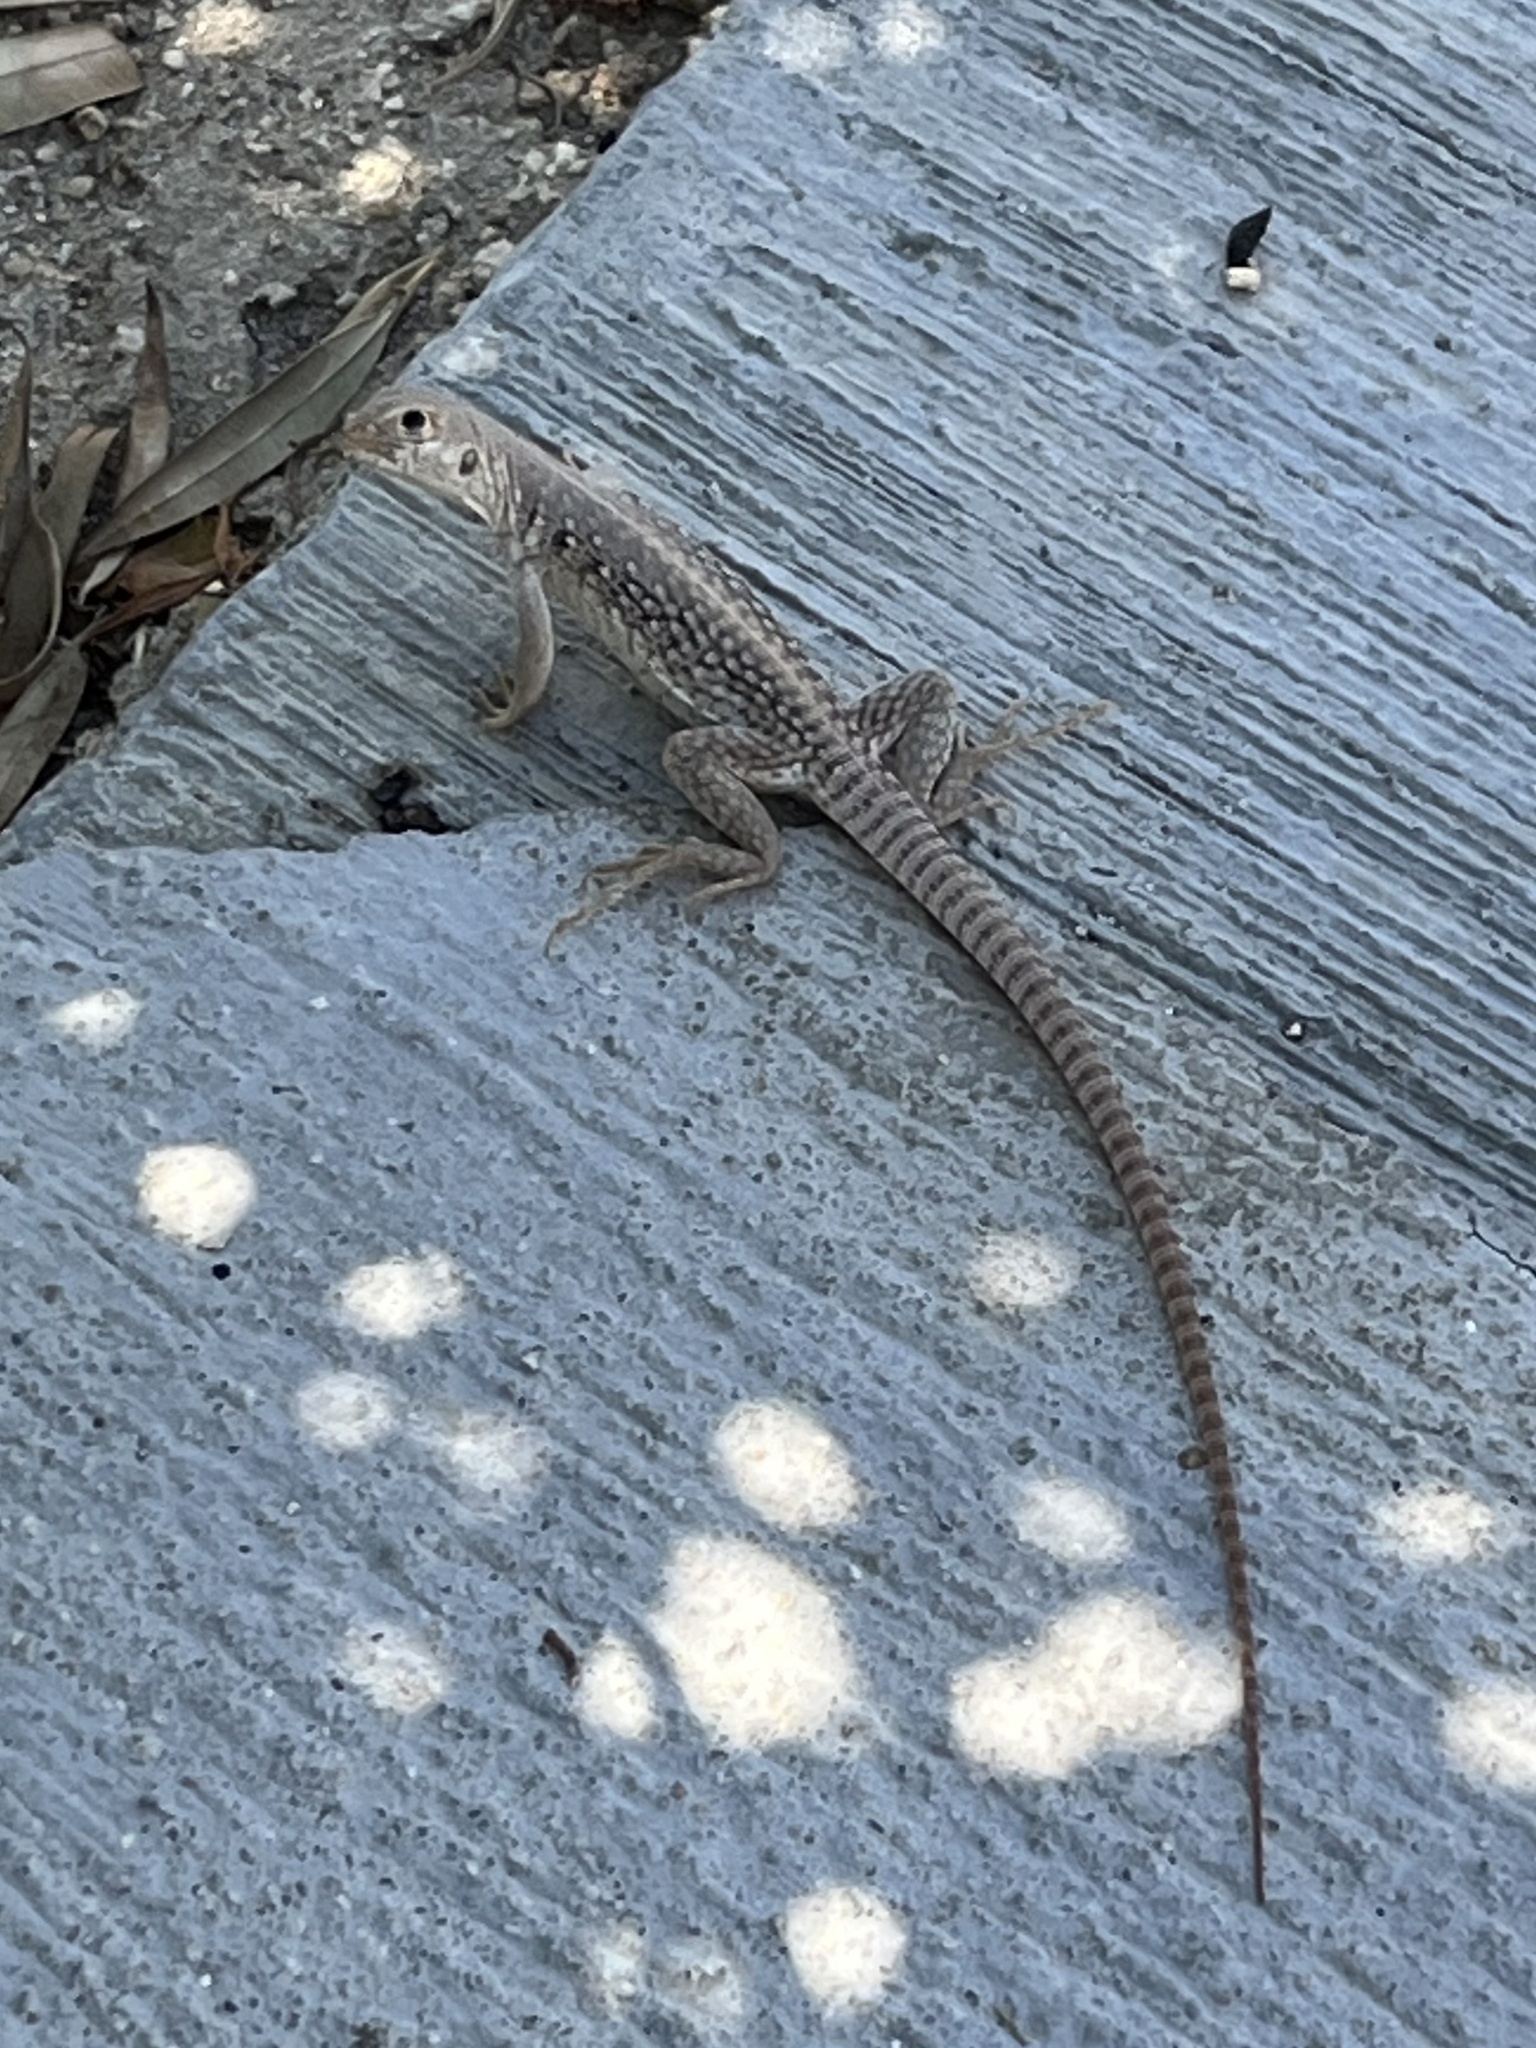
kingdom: Animalia
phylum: Chordata
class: Squamata
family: Iguanidae
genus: Dipsosaurus
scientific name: Dipsosaurus dorsalis
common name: Desert iguana
